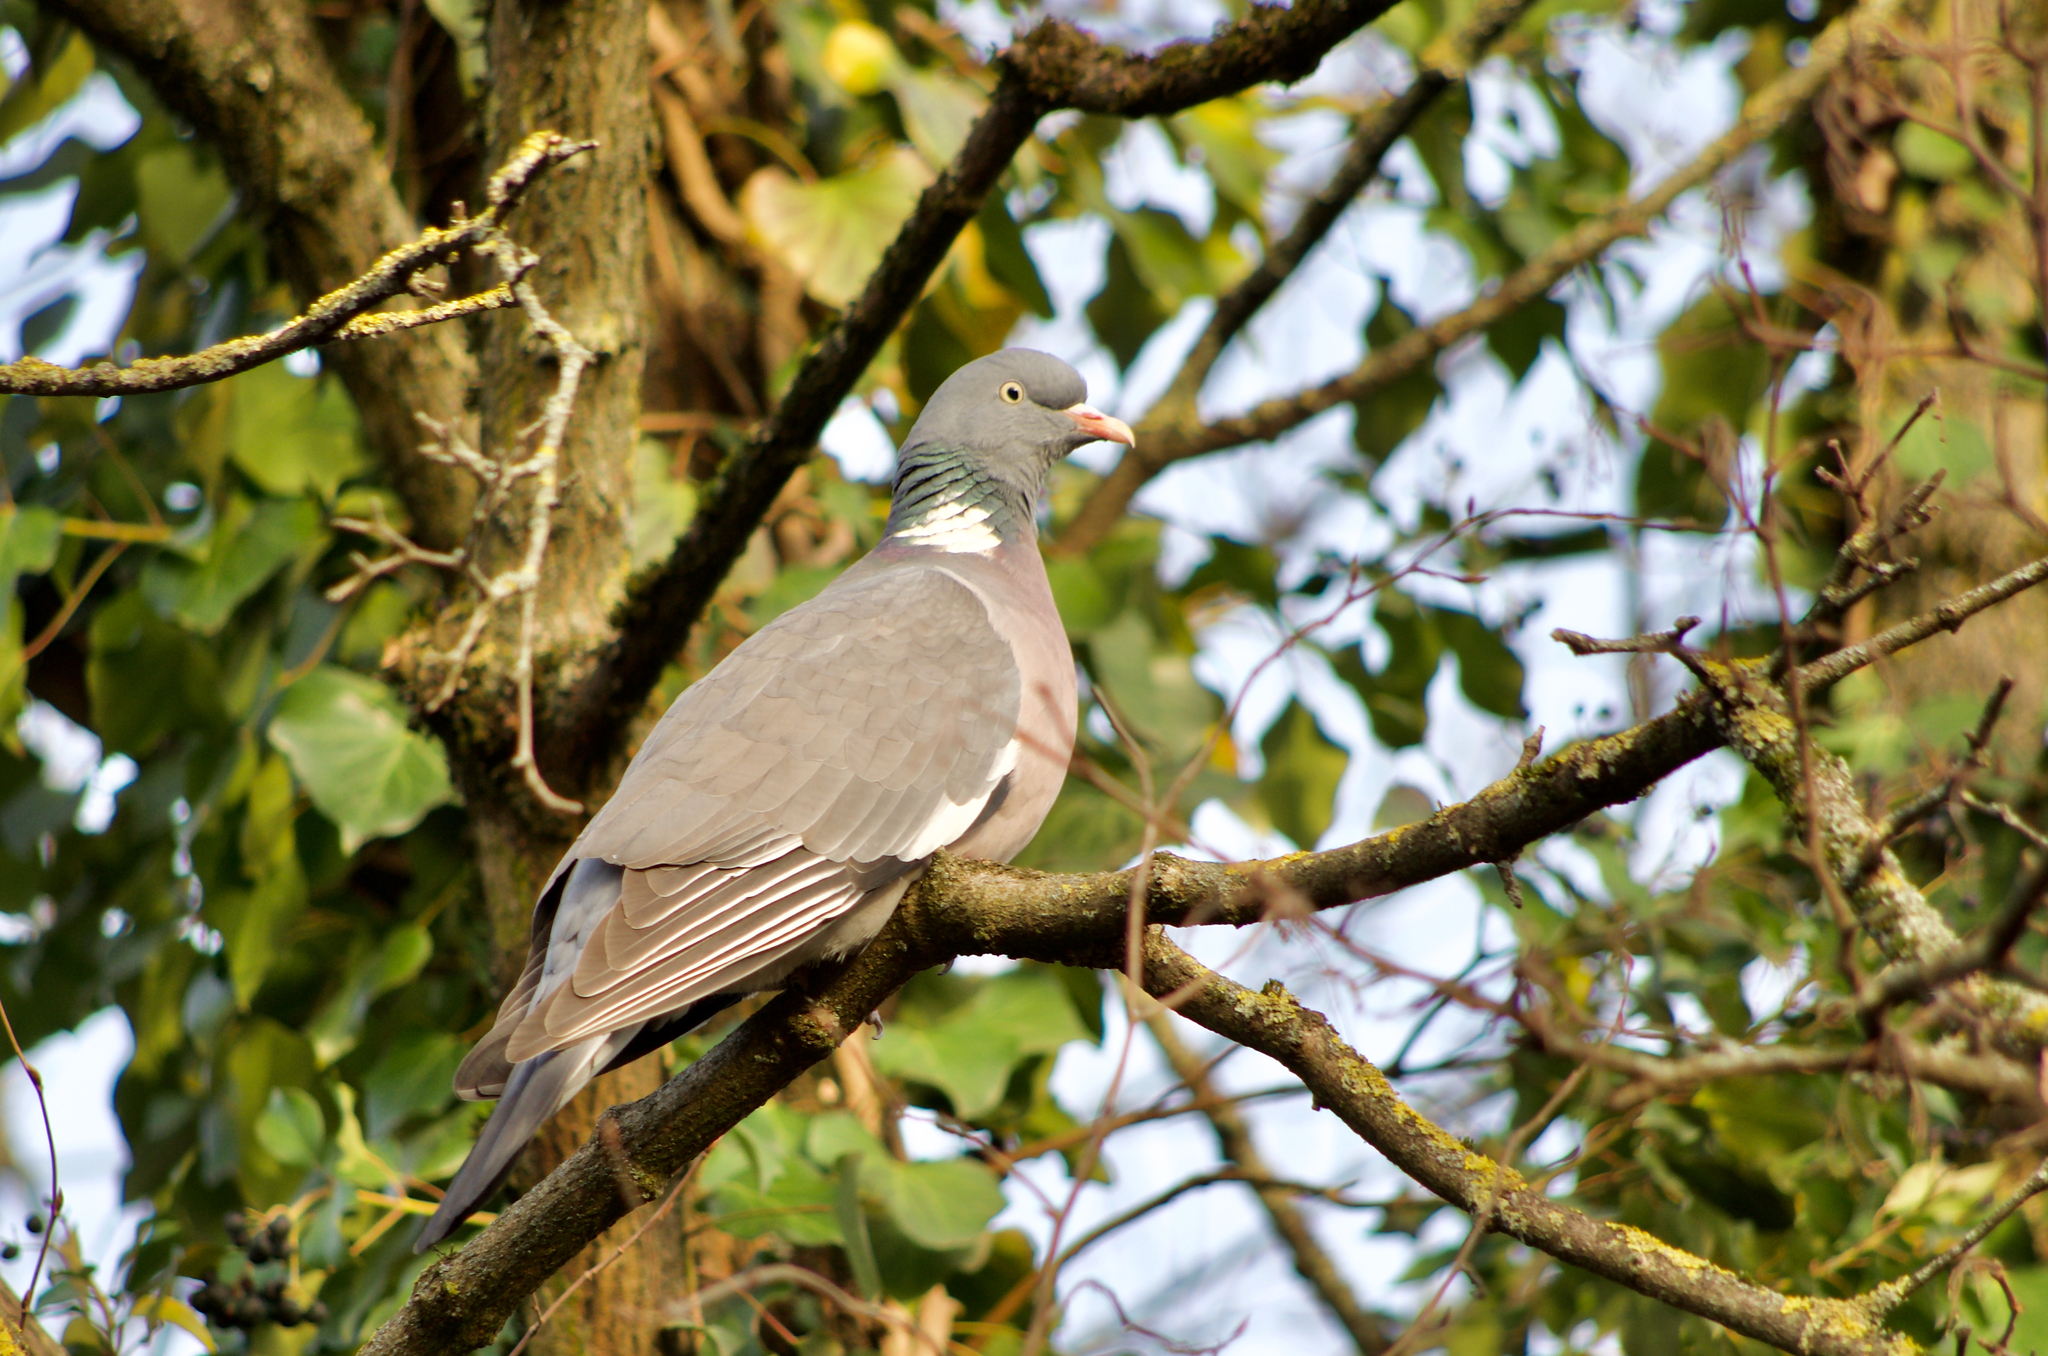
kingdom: Animalia
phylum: Chordata
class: Aves
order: Columbiformes
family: Columbidae
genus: Columba
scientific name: Columba palumbus
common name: Common wood pigeon
